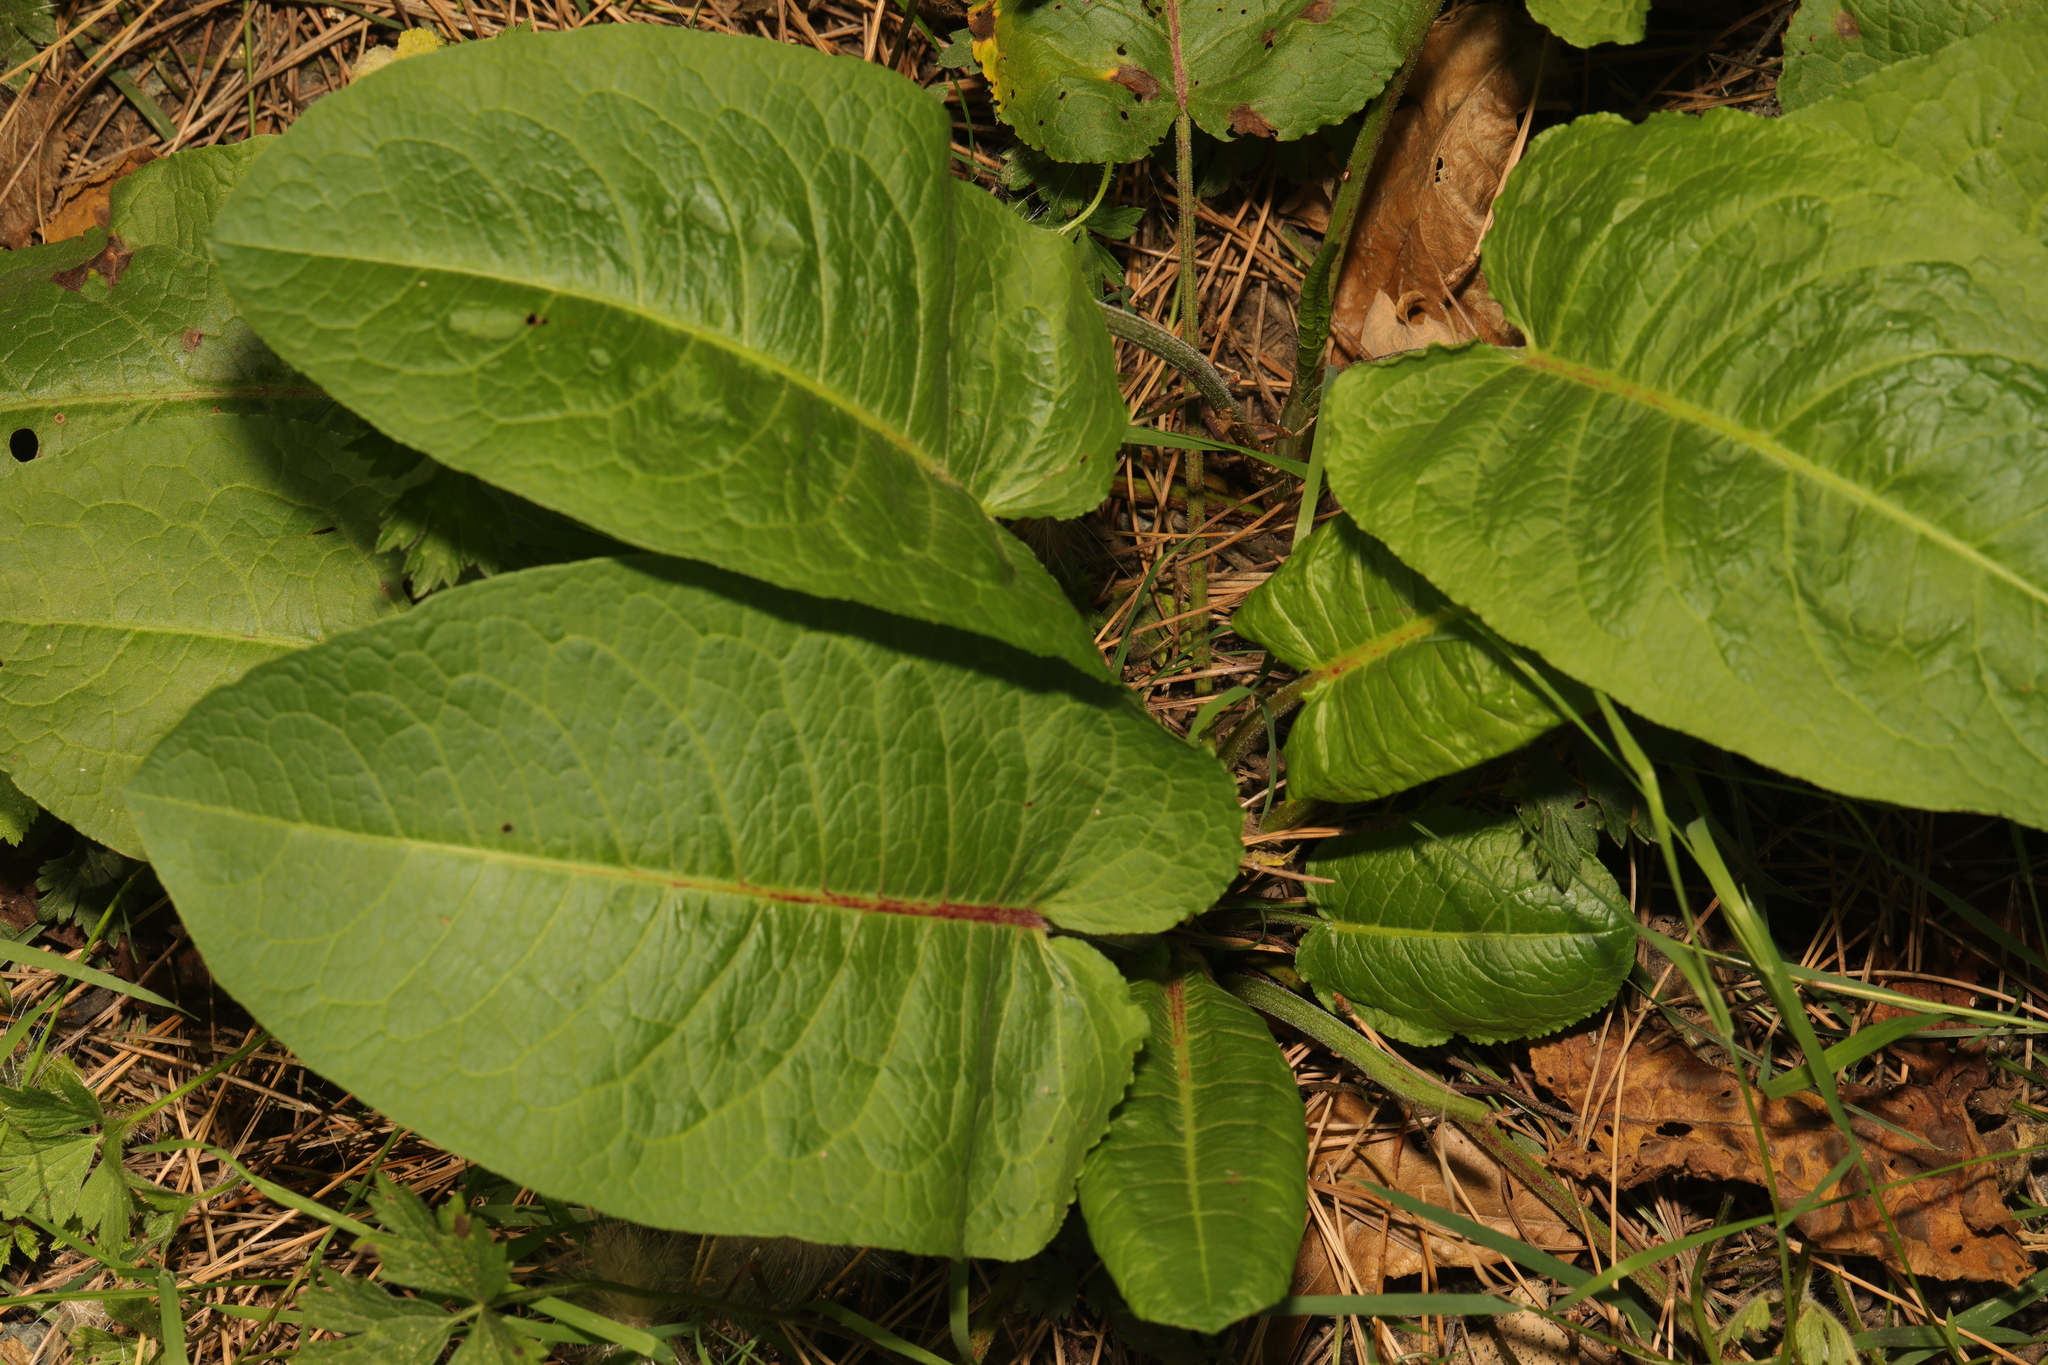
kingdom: Plantae
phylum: Tracheophyta
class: Magnoliopsida
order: Caryophyllales
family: Polygonaceae
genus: Rumex
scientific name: Rumex obtusifolius
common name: Bitter dock
